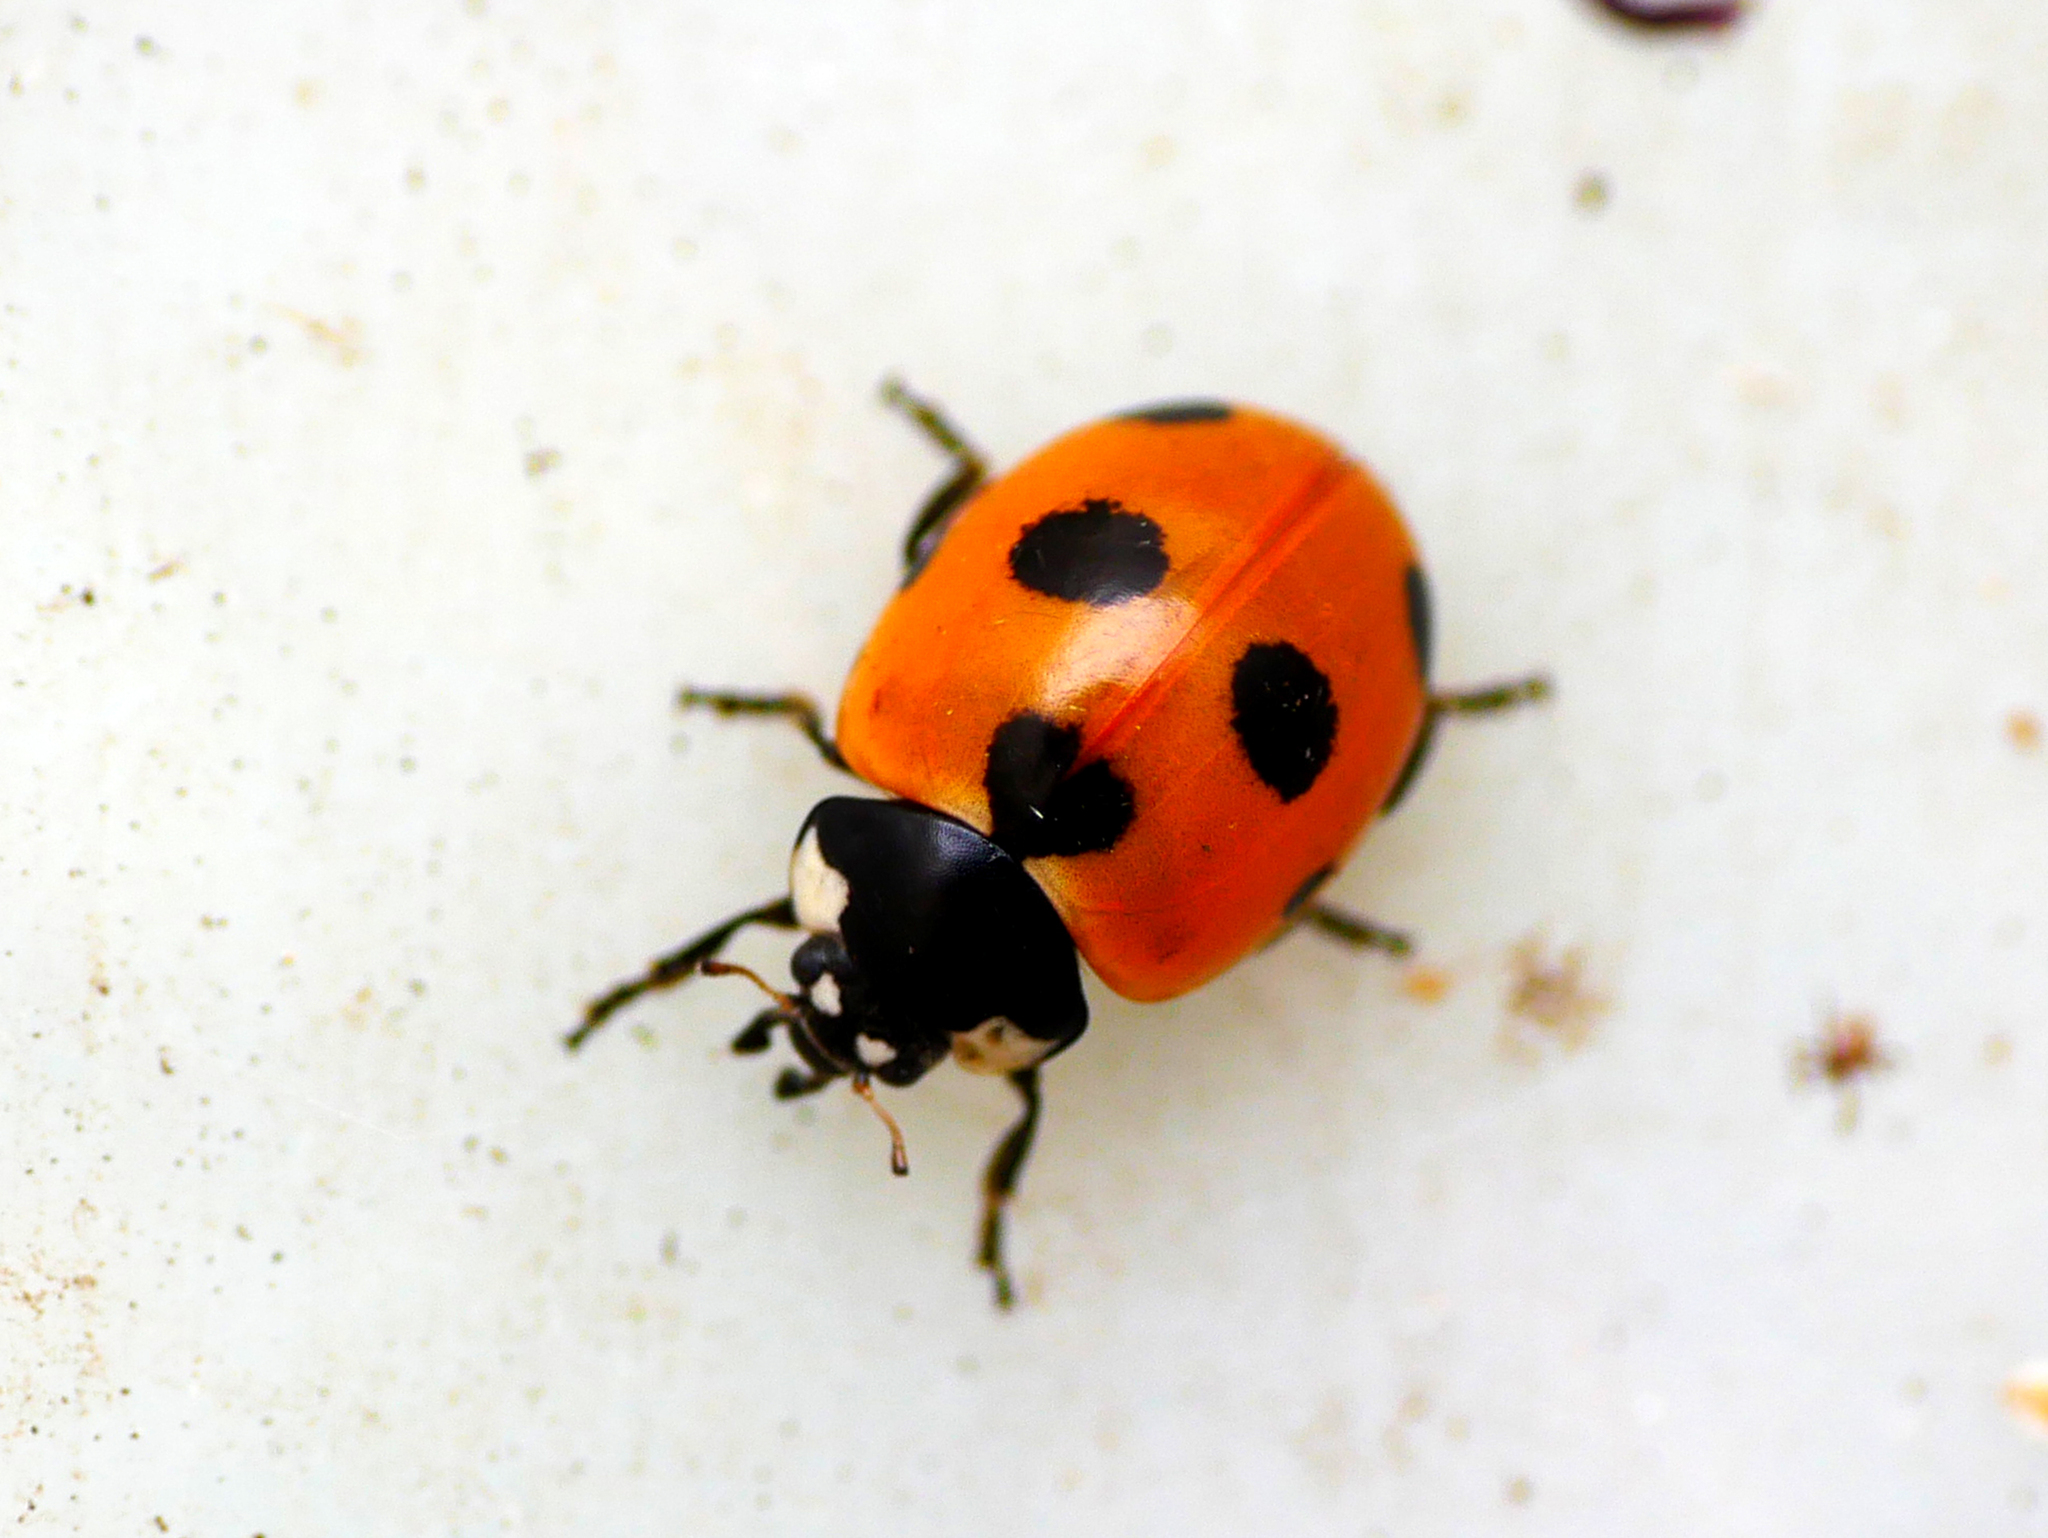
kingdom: Animalia
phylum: Arthropoda
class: Insecta
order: Coleoptera
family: Coccinellidae
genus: Coccinella
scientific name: Coccinella magnifica
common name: Scarce 7-spot ladybird
